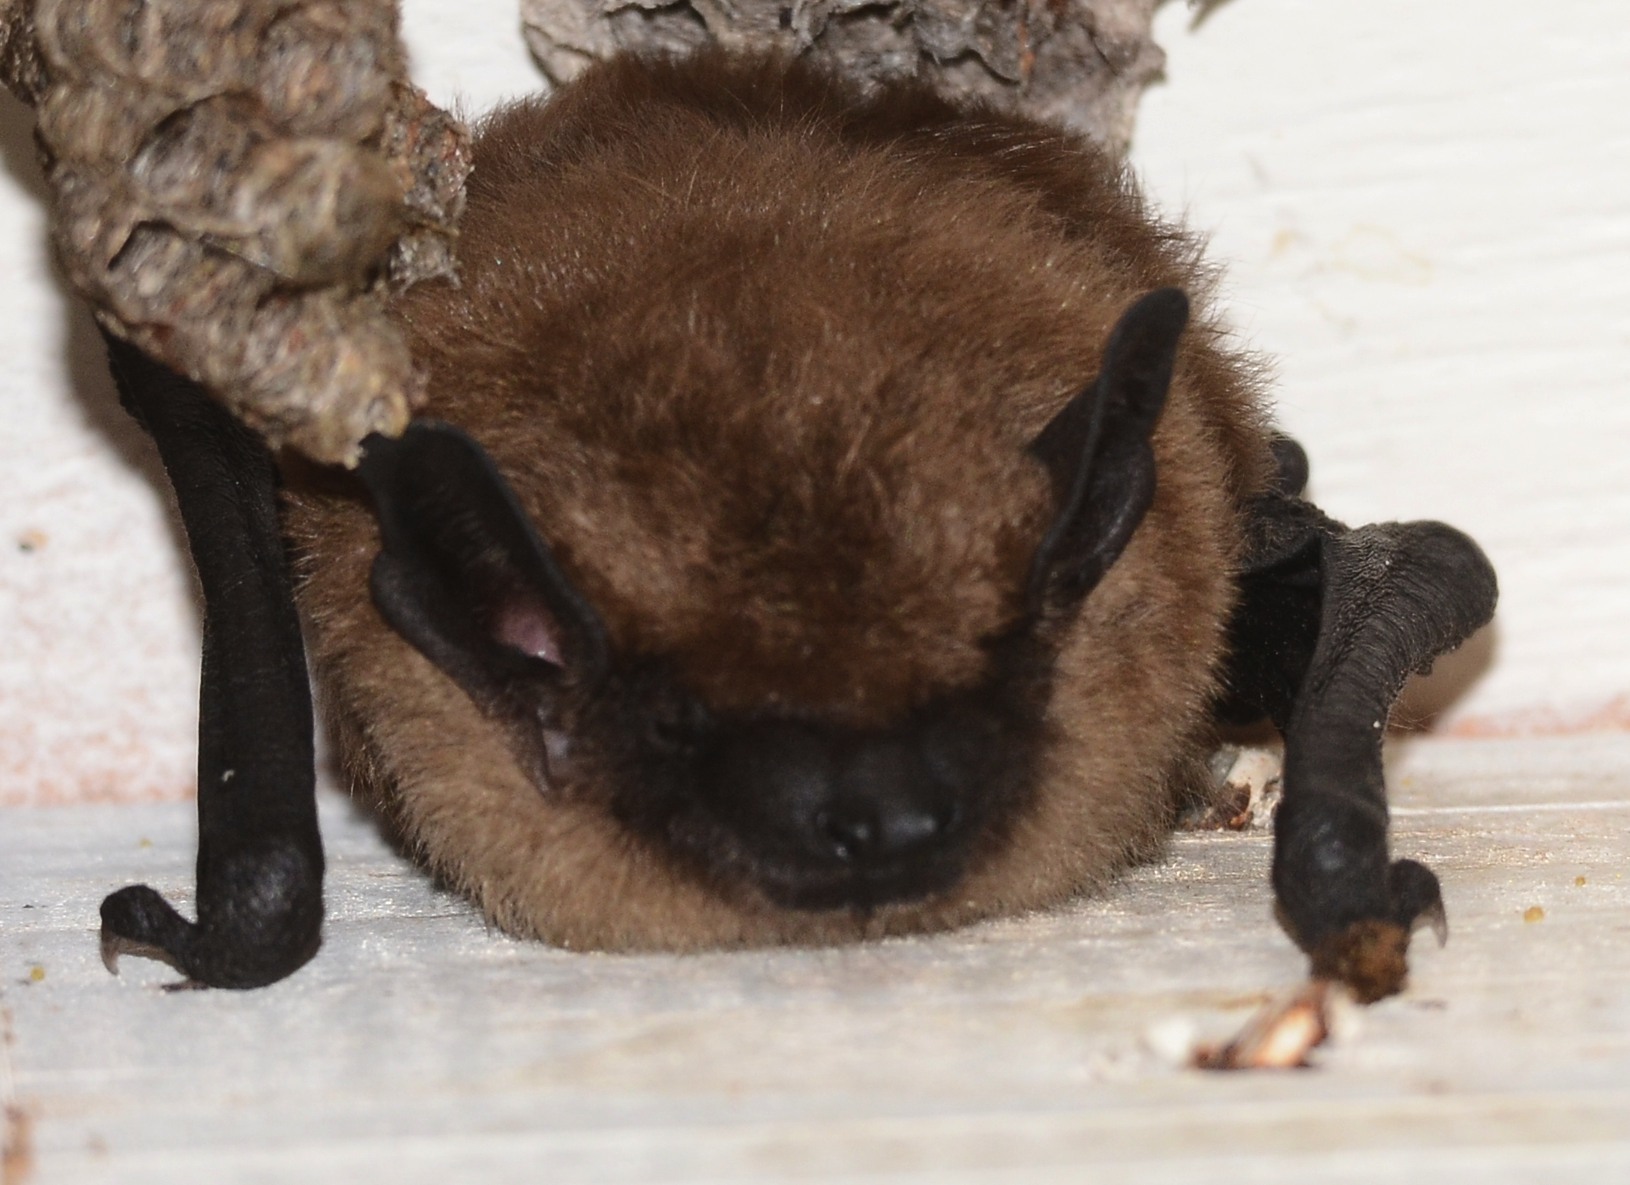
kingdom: Animalia
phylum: Chordata
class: Mammalia
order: Chiroptera
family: Vespertilionidae
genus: Eptesicus
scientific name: Eptesicus fuscus
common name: Big brown bat
